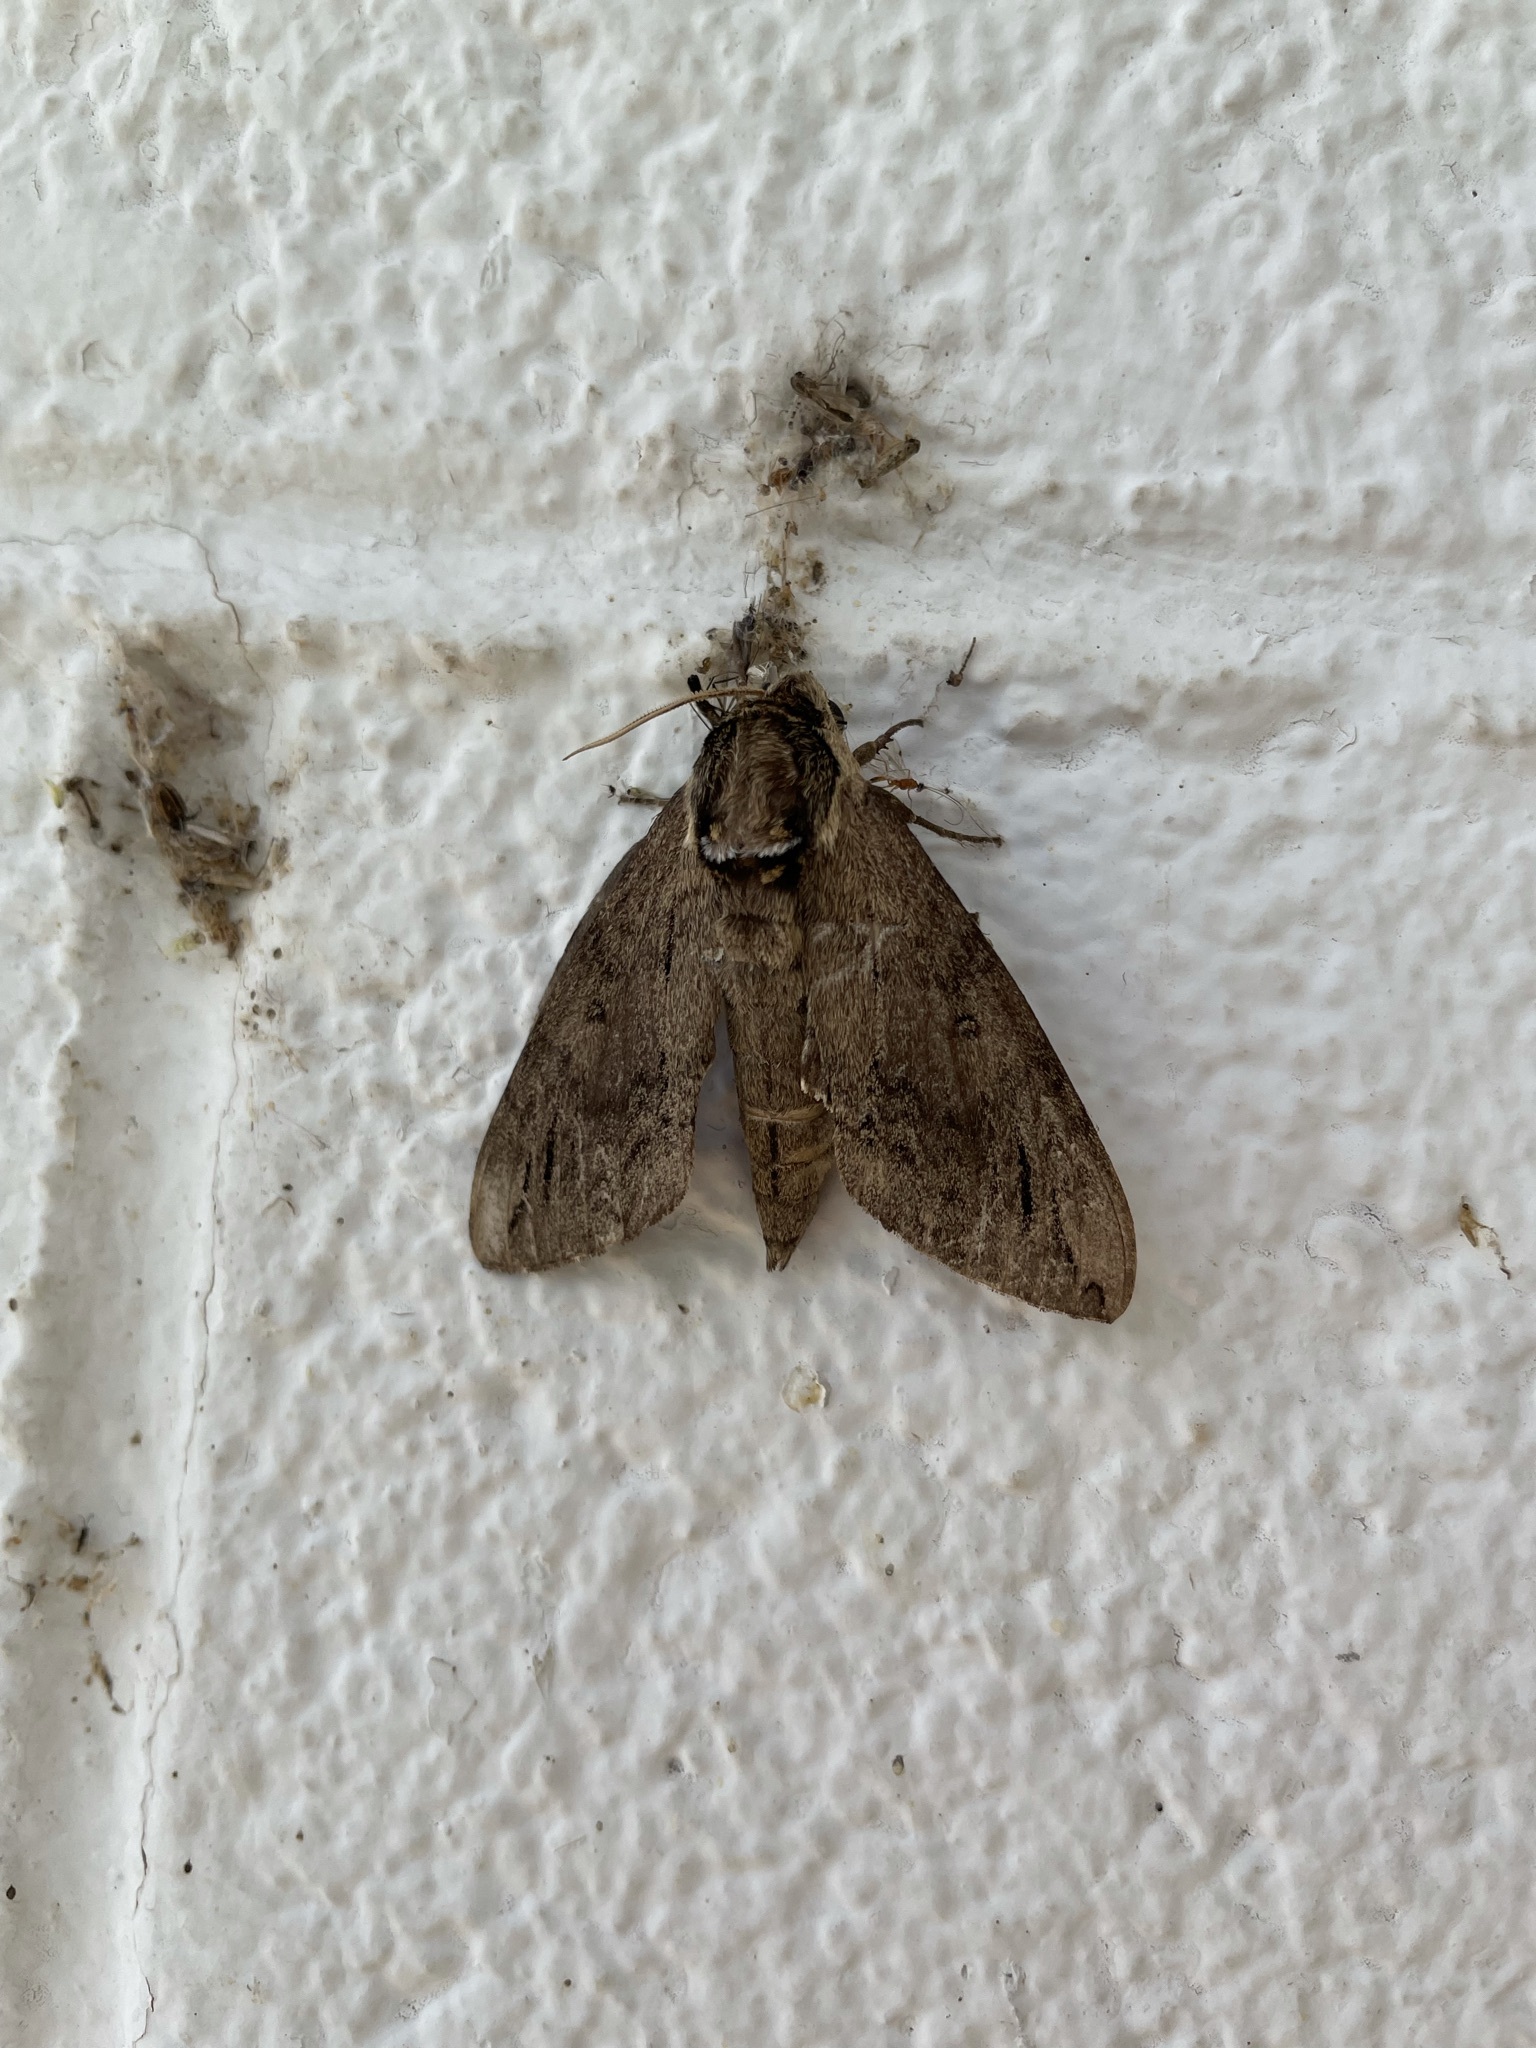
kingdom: Animalia
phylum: Arthropoda
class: Insecta
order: Lepidoptera
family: Sphingidae
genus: Ceratomia
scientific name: Ceratomia catalpae
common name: Catalpa hornworm
